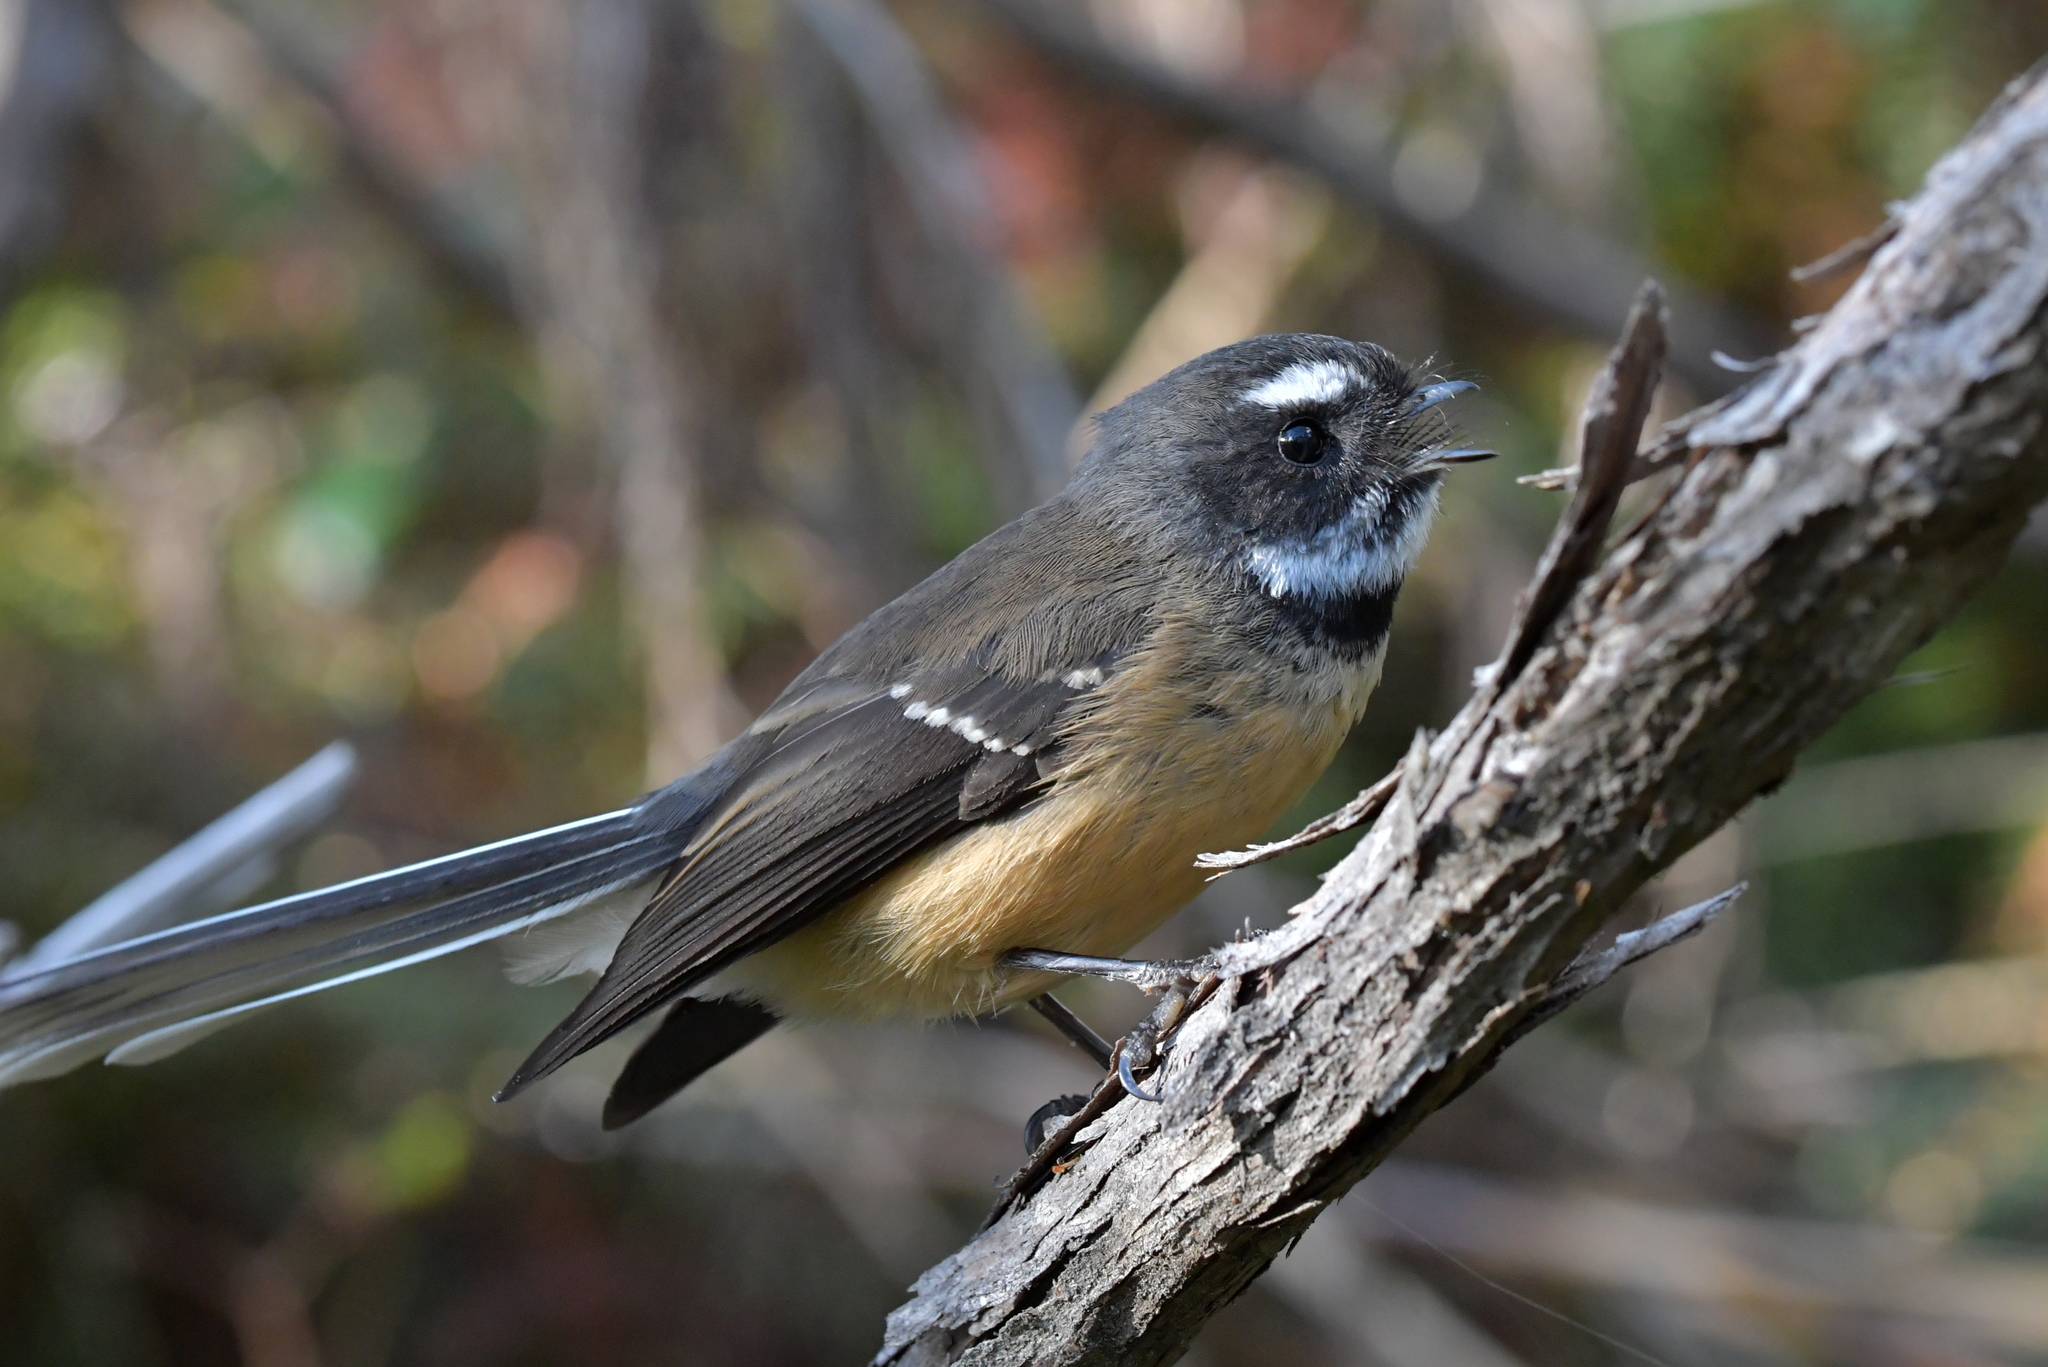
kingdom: Animalia
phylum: Chordata
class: Aves
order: Passeriformes
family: Rhipiduridae
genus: Rhipidura
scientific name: Rhipidura fuliginosa
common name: New zealand fantail
